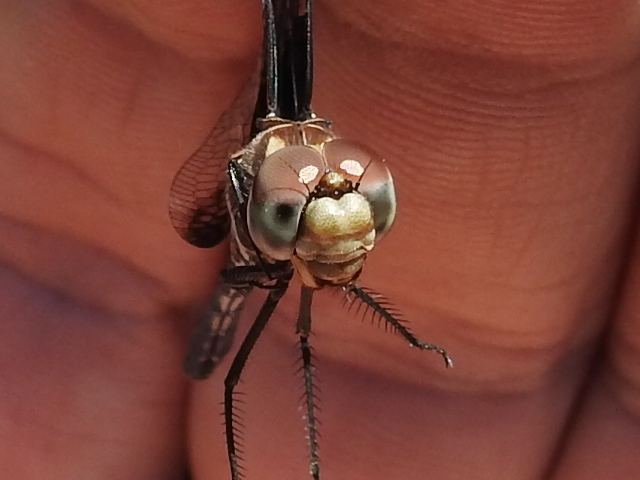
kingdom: Animalia
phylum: Arthropoda
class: Insecta
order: Odonata
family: Libellulidae
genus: Dythemis
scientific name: Dythemis fugax
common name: Checkered setwing
